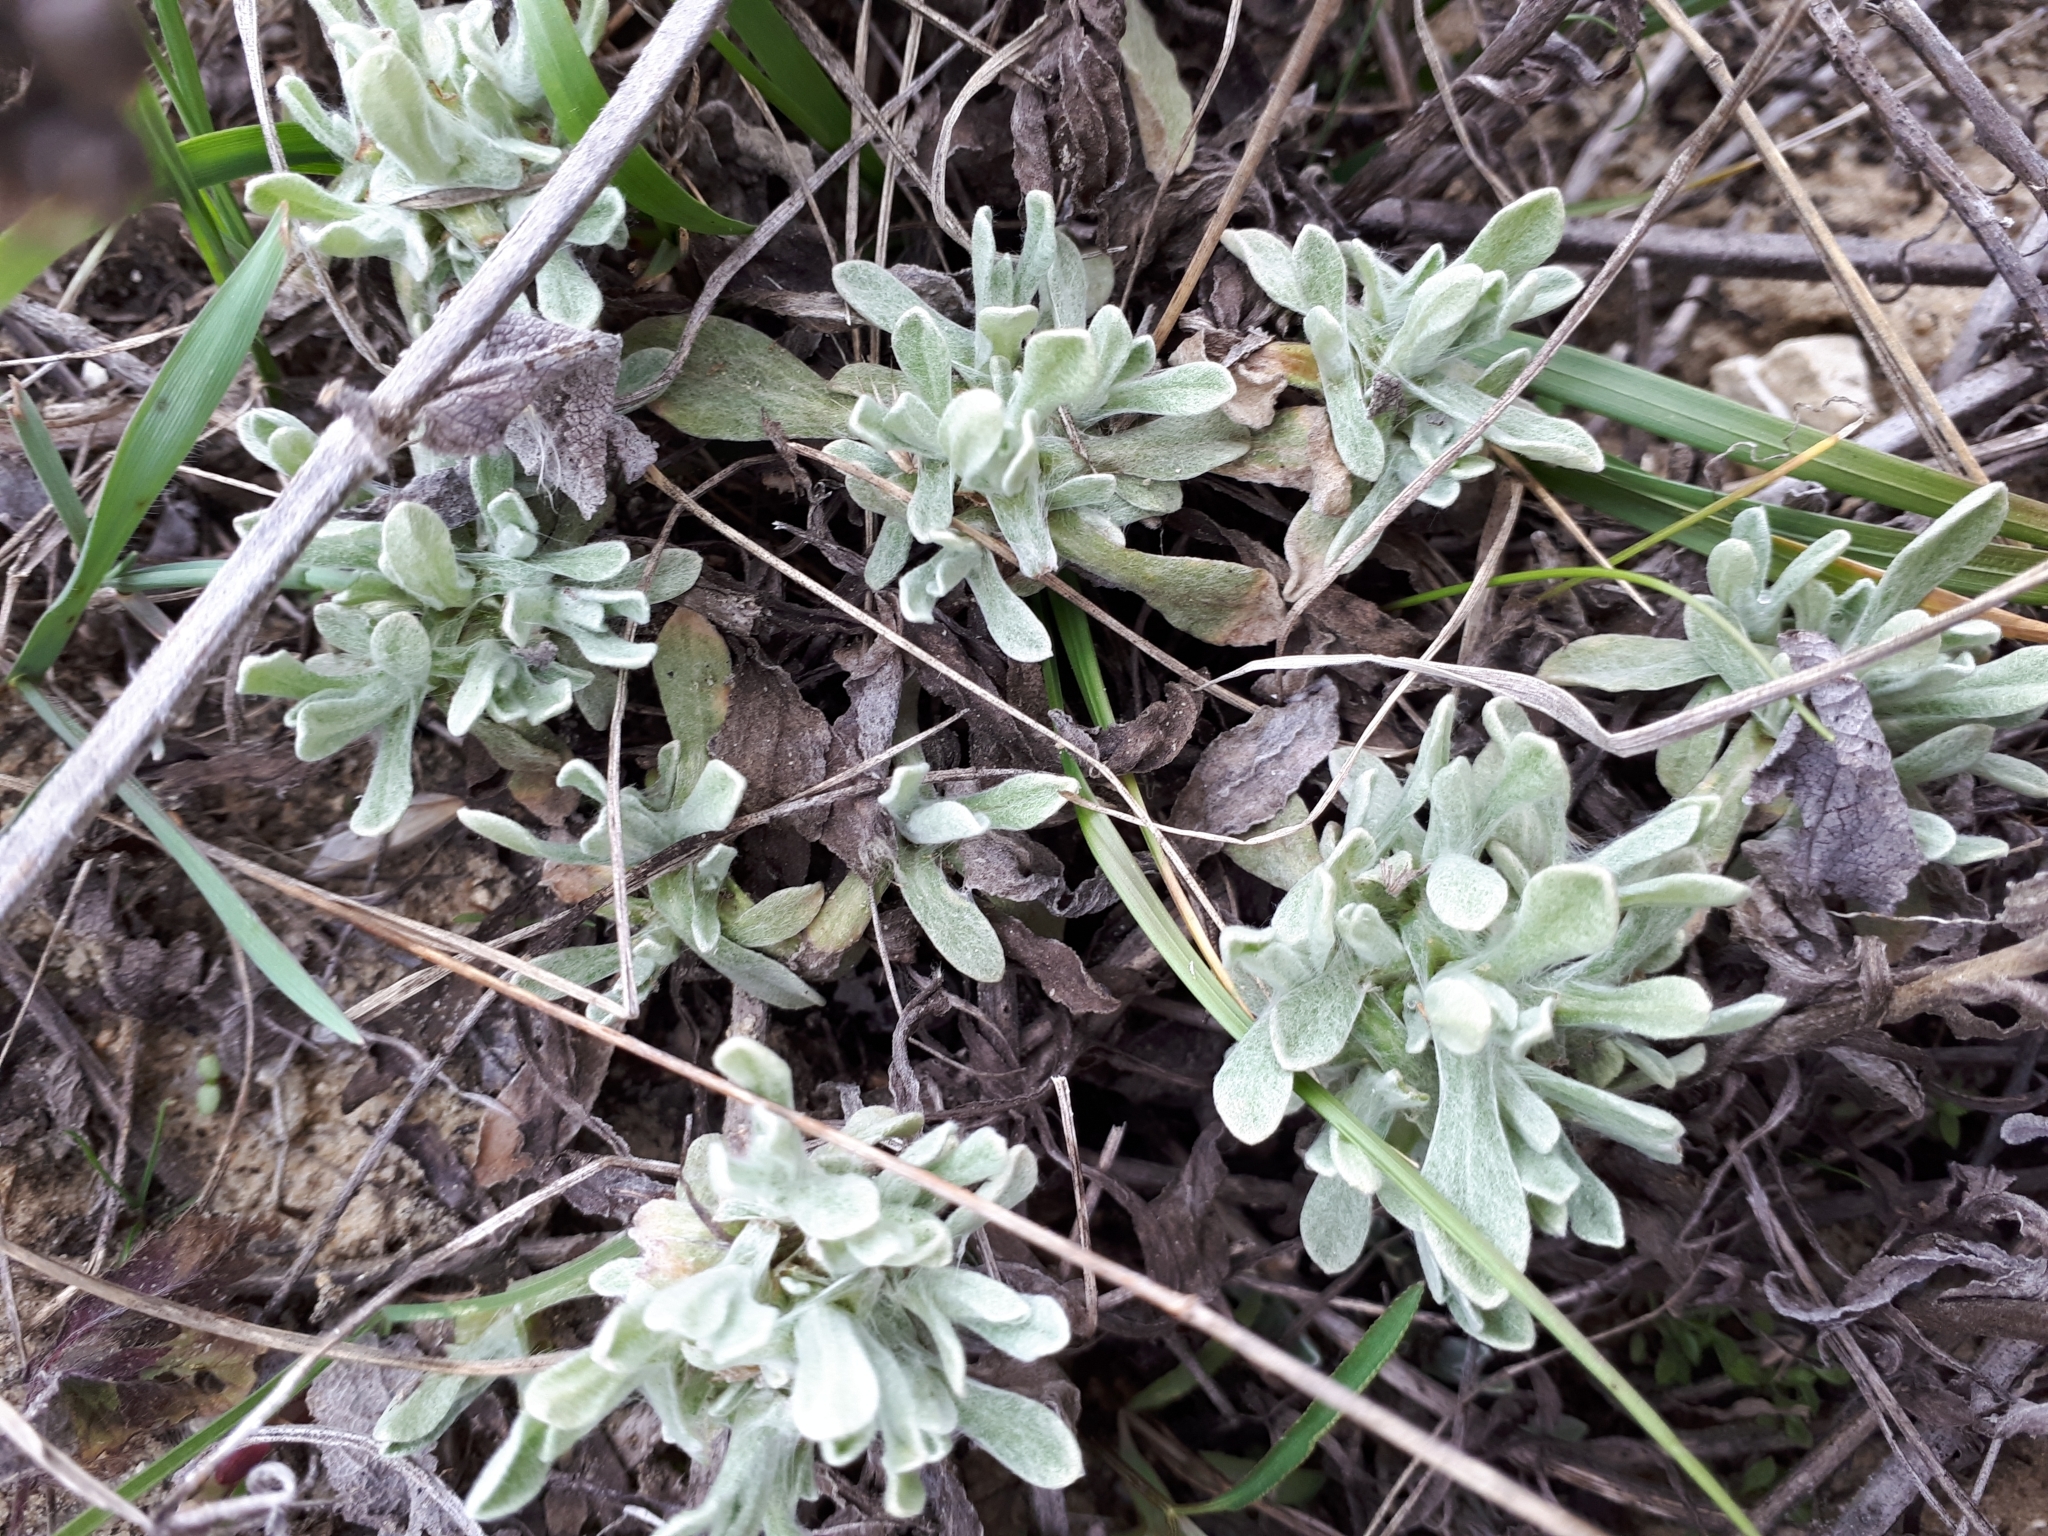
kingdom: Plantae
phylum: Tracheophyta
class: Magnoliopsida
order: Asterales
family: Asteraceae
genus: Helichrysum
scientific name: Helichrysum arenarium
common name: Strawflower
